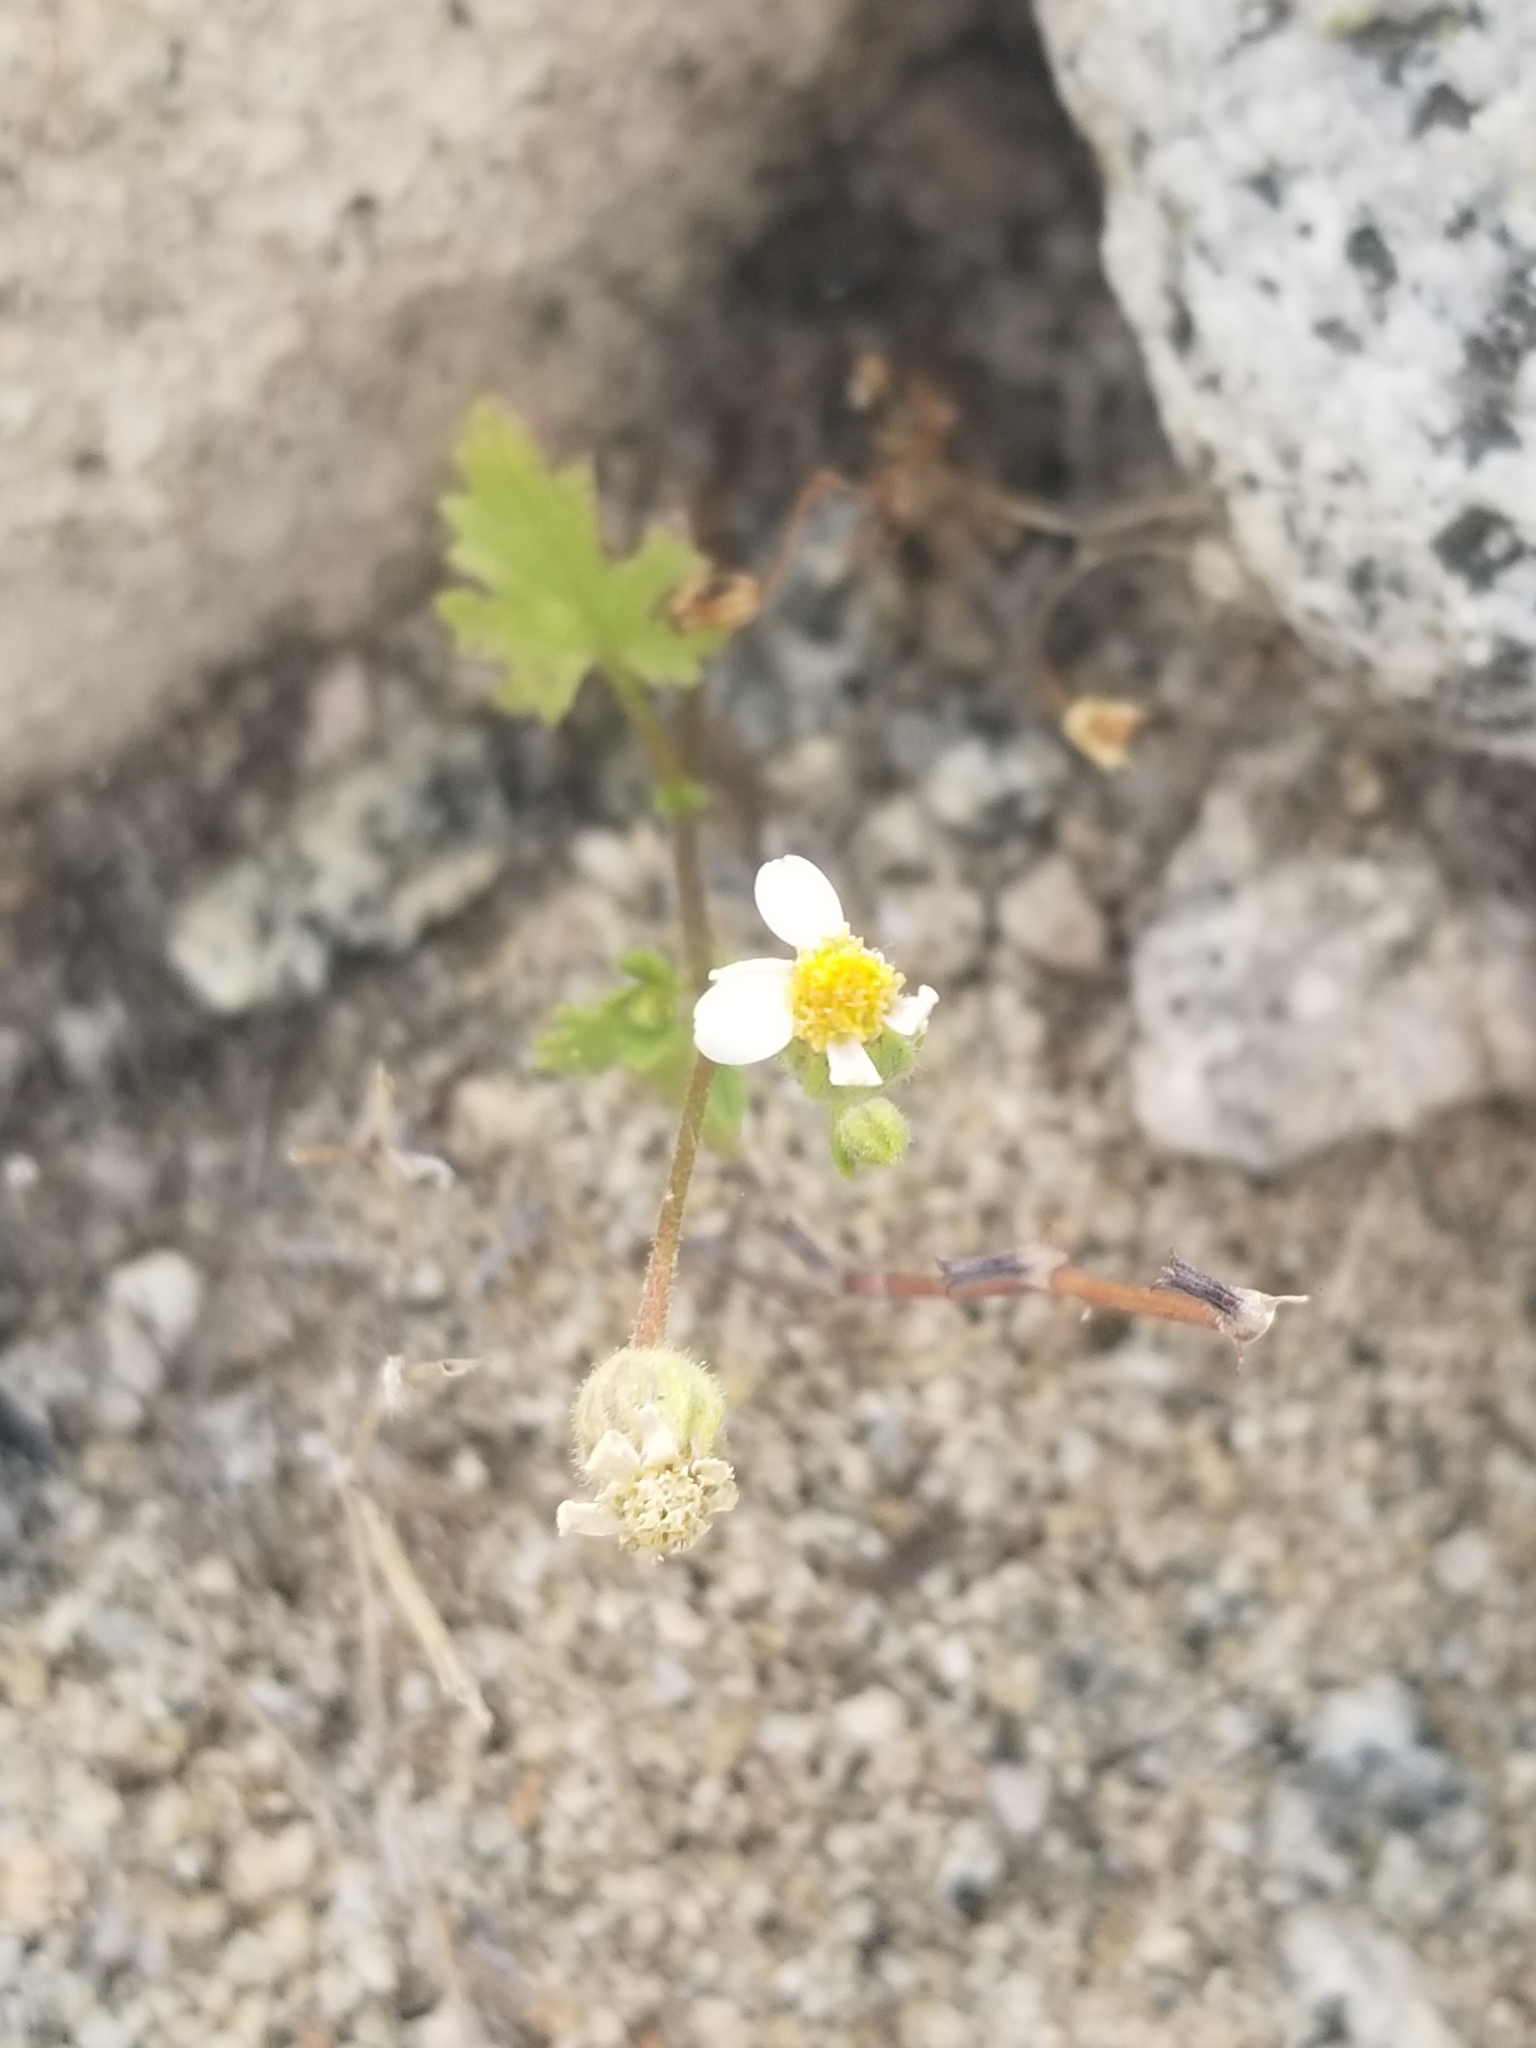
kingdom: Plantae
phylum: Tracheophyta
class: Magnoliopsida
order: Asterales
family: Asteraceae
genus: Laphamia
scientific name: Laphamia emoryi
